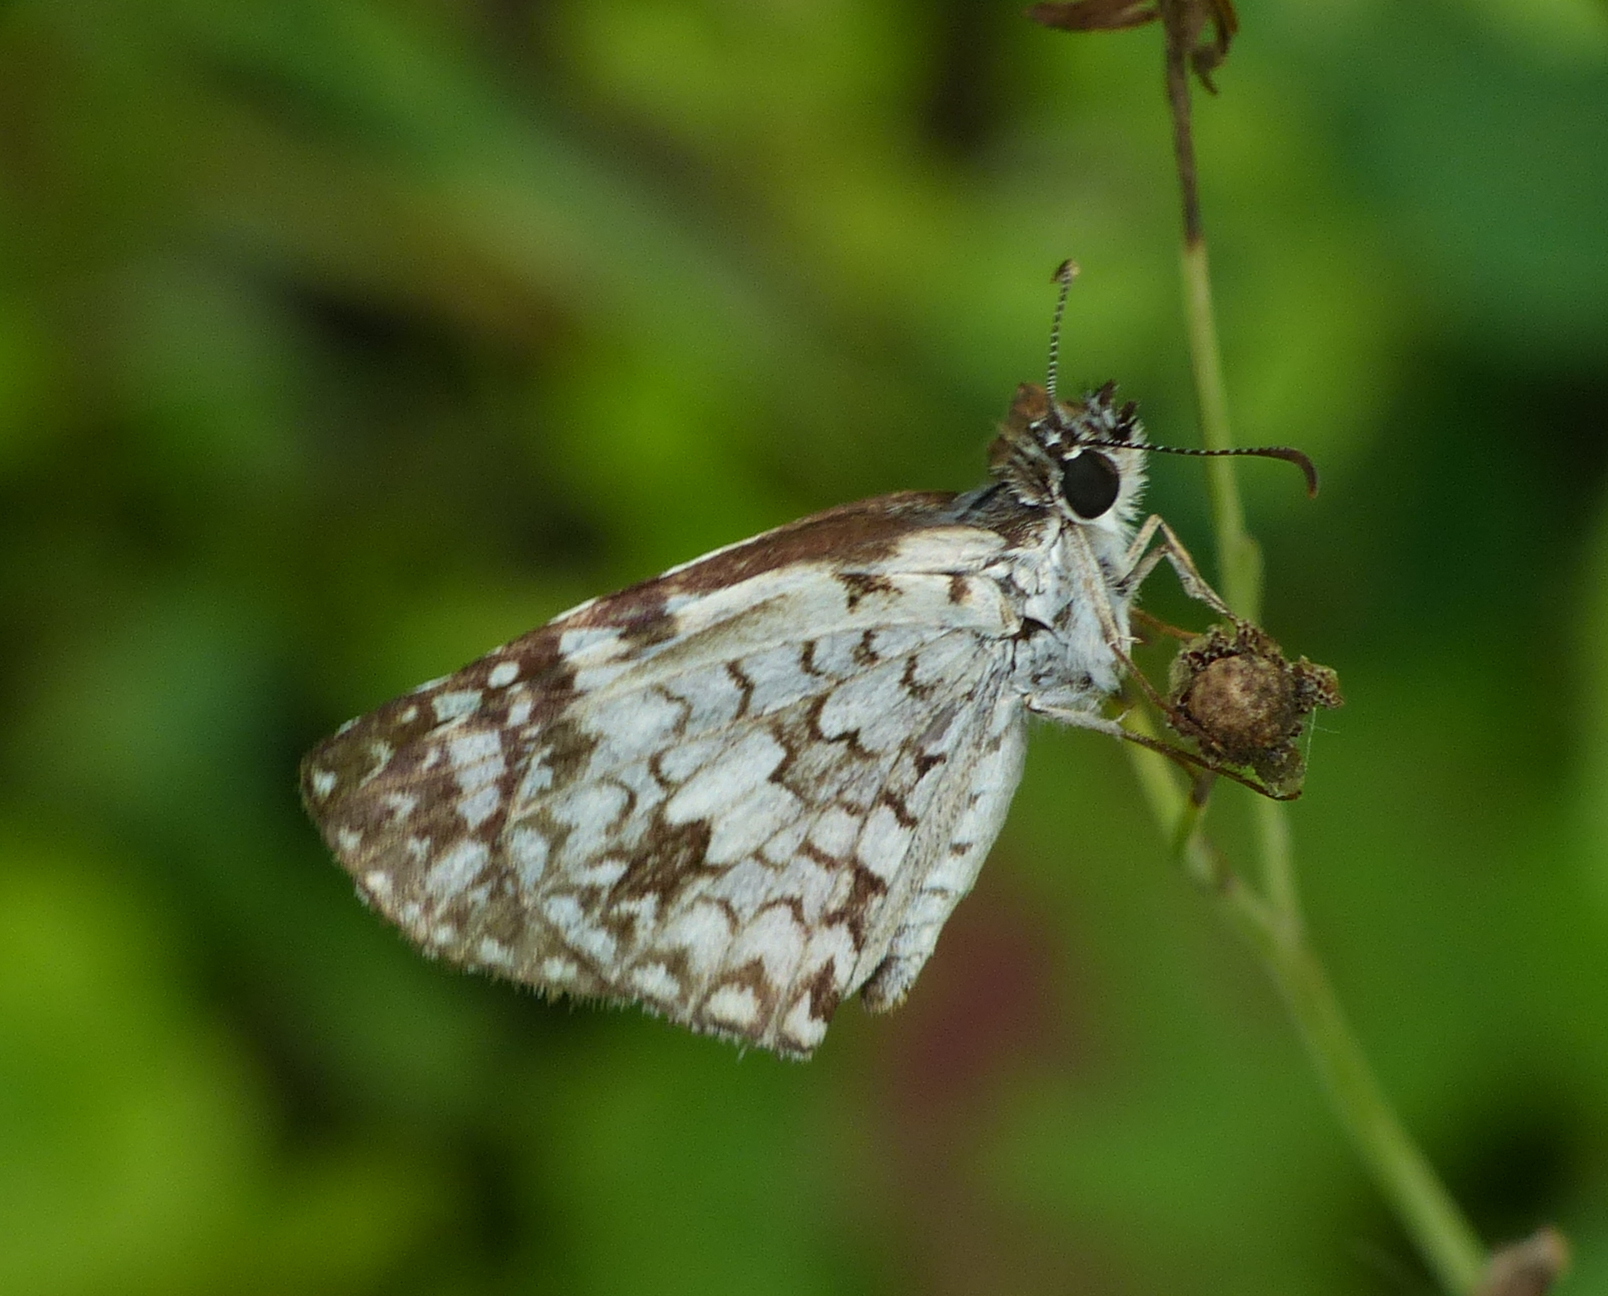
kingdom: Animalia
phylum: Arthropoda
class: Insecta
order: Lepidoptera
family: Hesperiidae
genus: Pyrgus
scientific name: Pyrgus oileus
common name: Tropical checkered-skipper
